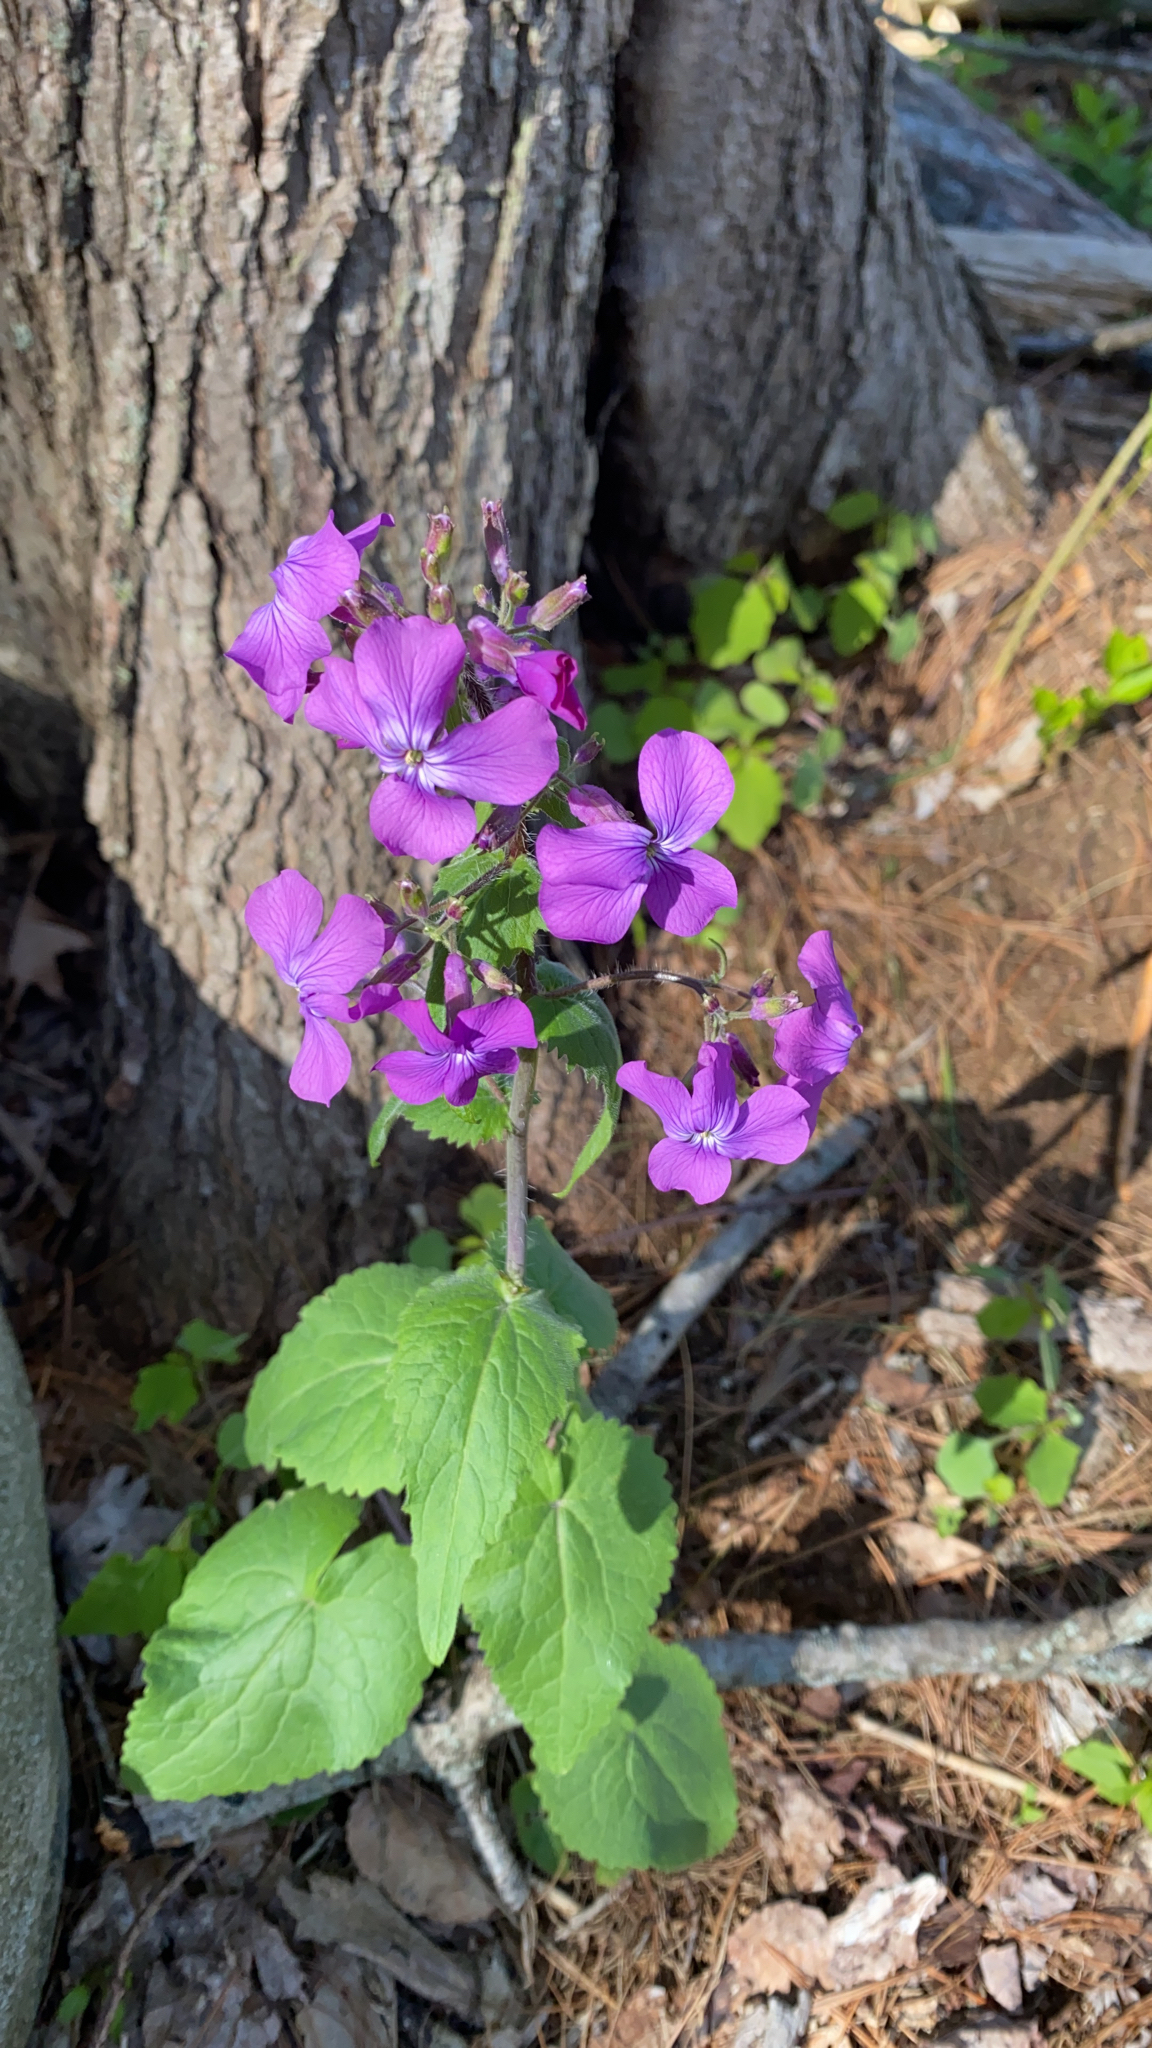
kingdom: Plantae
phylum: Tracheophyta
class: Magnoliopsida
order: Brassicales
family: Brassicaceae
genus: Lunaria
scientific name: Lunaria annua
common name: Honesty
